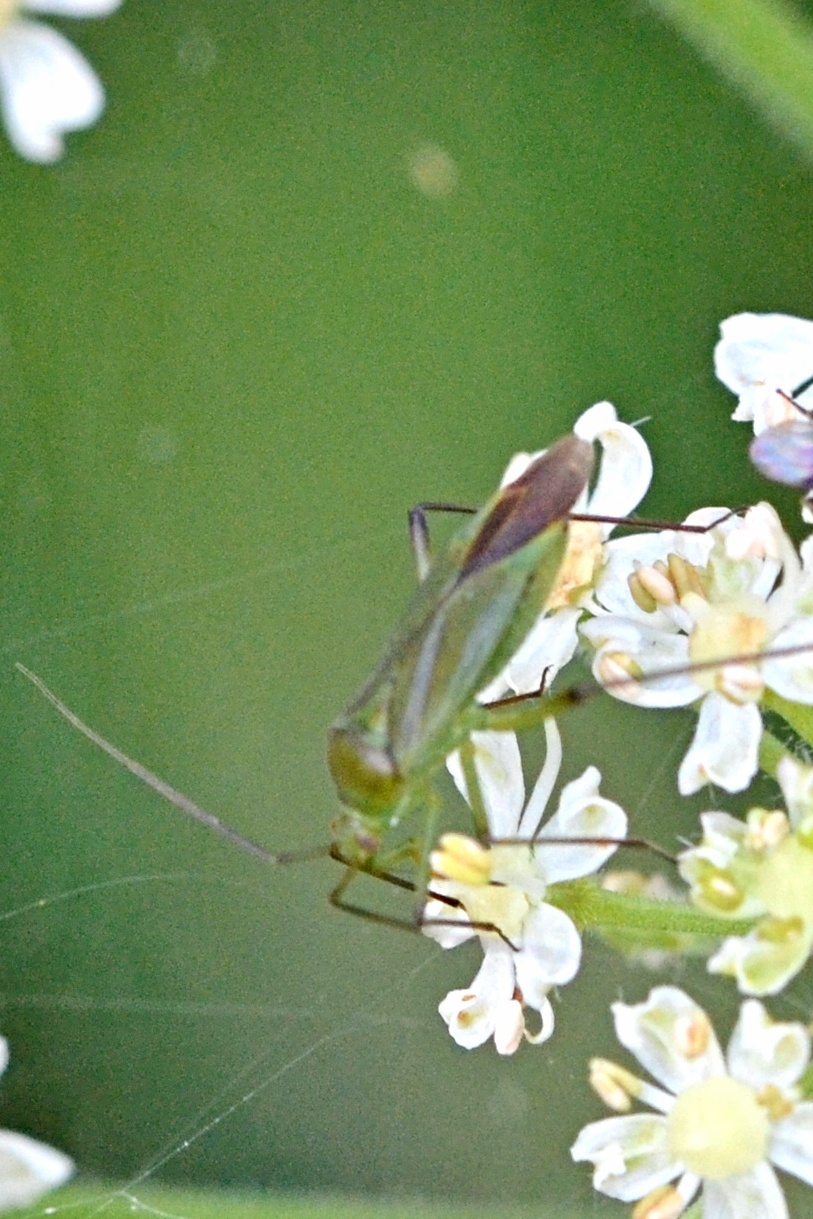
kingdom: Animalia
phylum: Arthropoda
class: Insecta
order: Hemiptera
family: Miridae
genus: Calocoris
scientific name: Calocoris affinis
